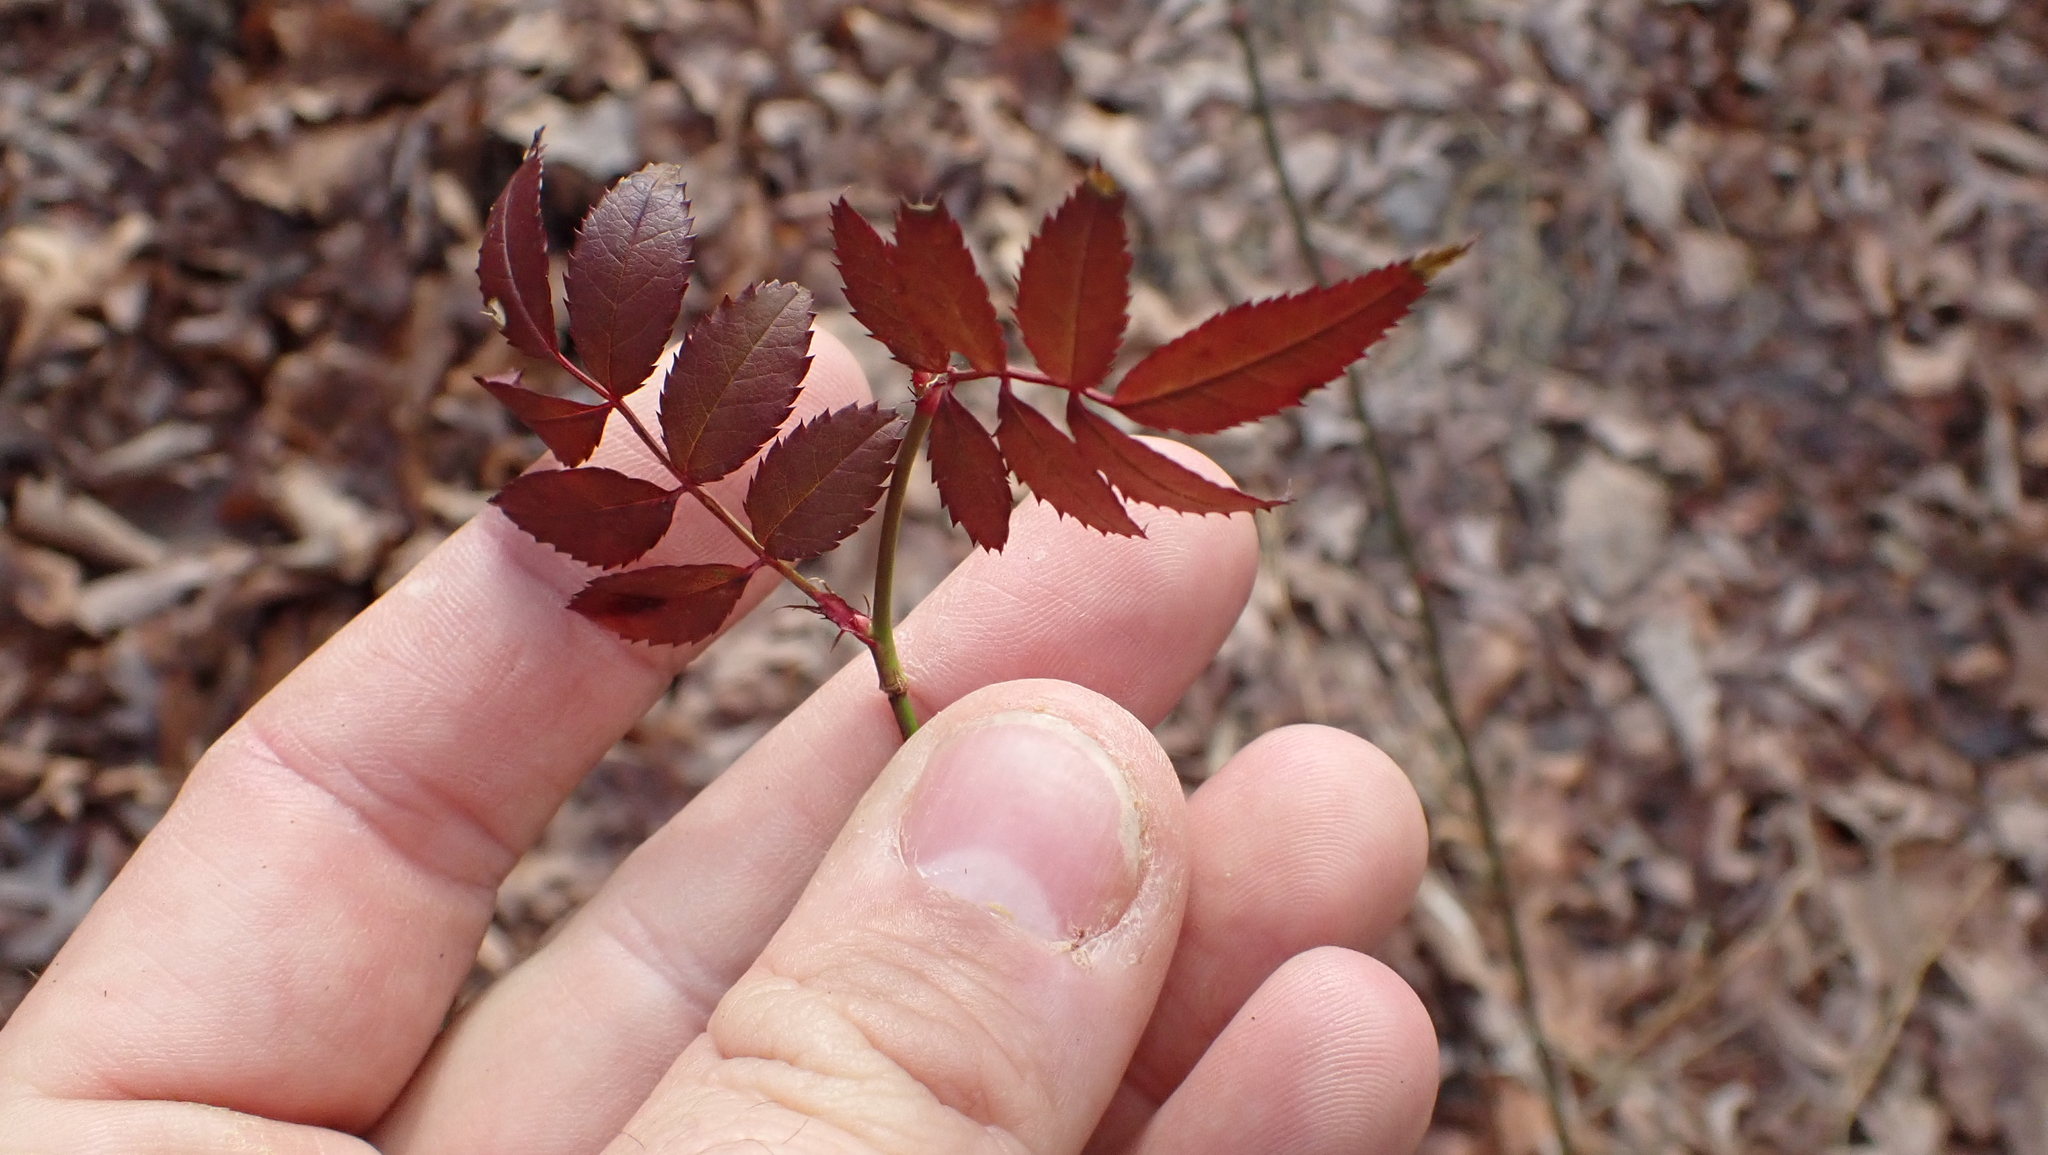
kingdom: Plantae
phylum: Tracheophyta
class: Magnoliopsida
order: Rosales
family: Rosaceae
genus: Rosa
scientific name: Rosa multiflora
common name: Multiflora rose
